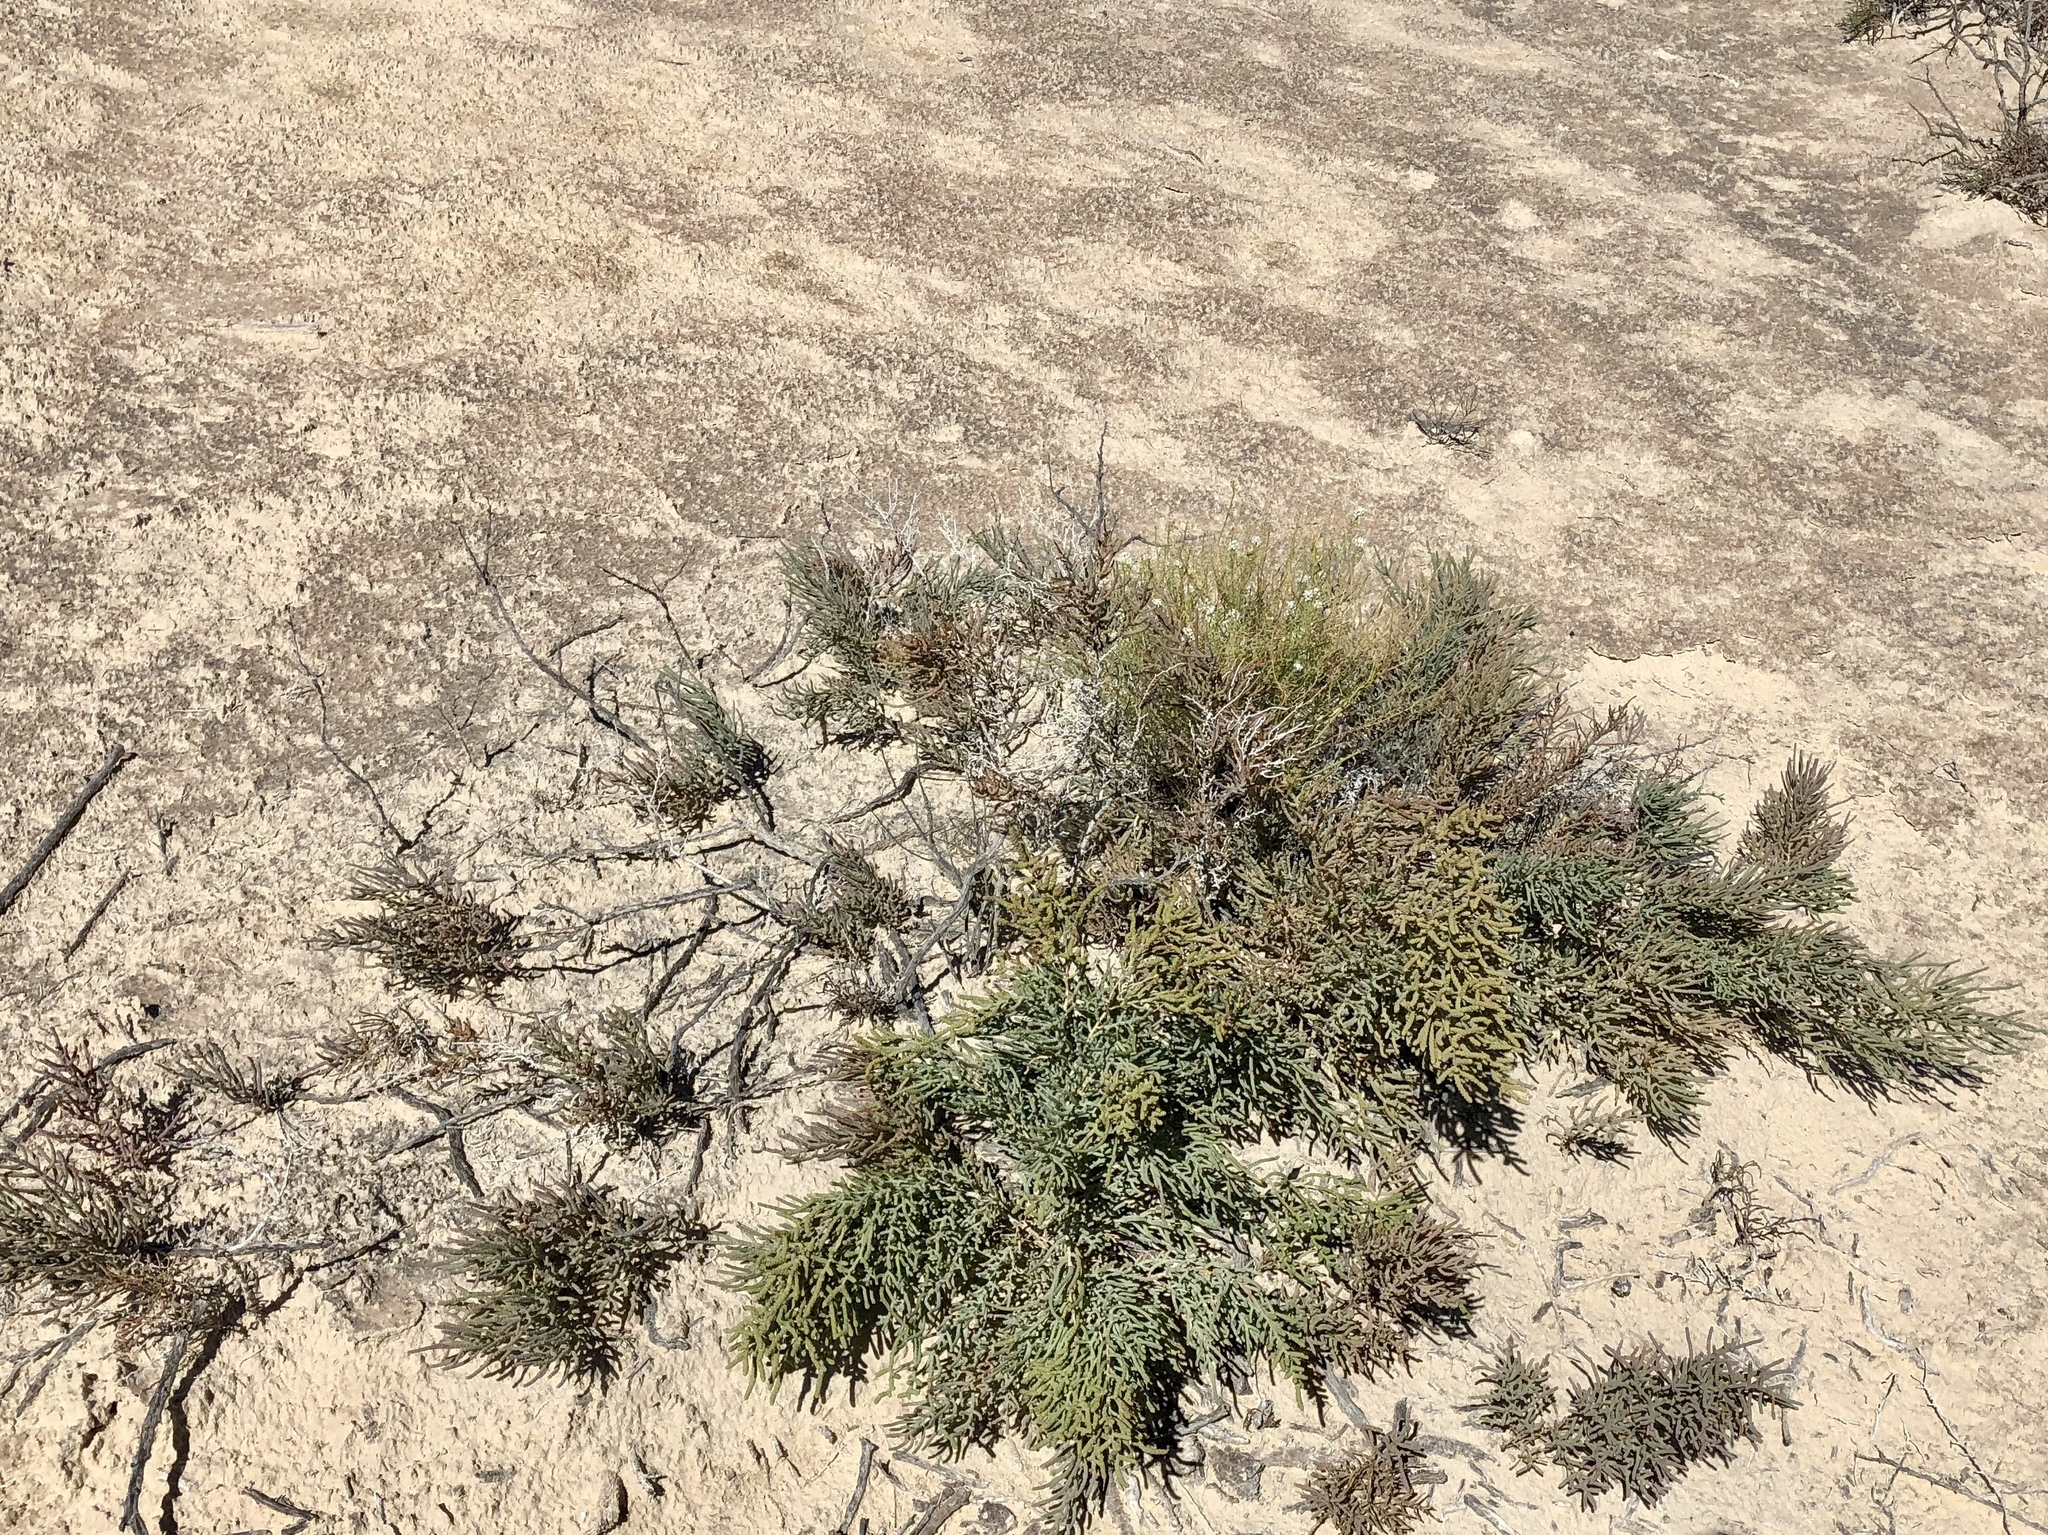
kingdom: Plantae
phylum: Tracheophyta
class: Magnoliopsida
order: Caryophyllales
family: Amaranthaceae
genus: Allenrolfea
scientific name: Allenrolfea occidentalis
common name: Iodine-bush
